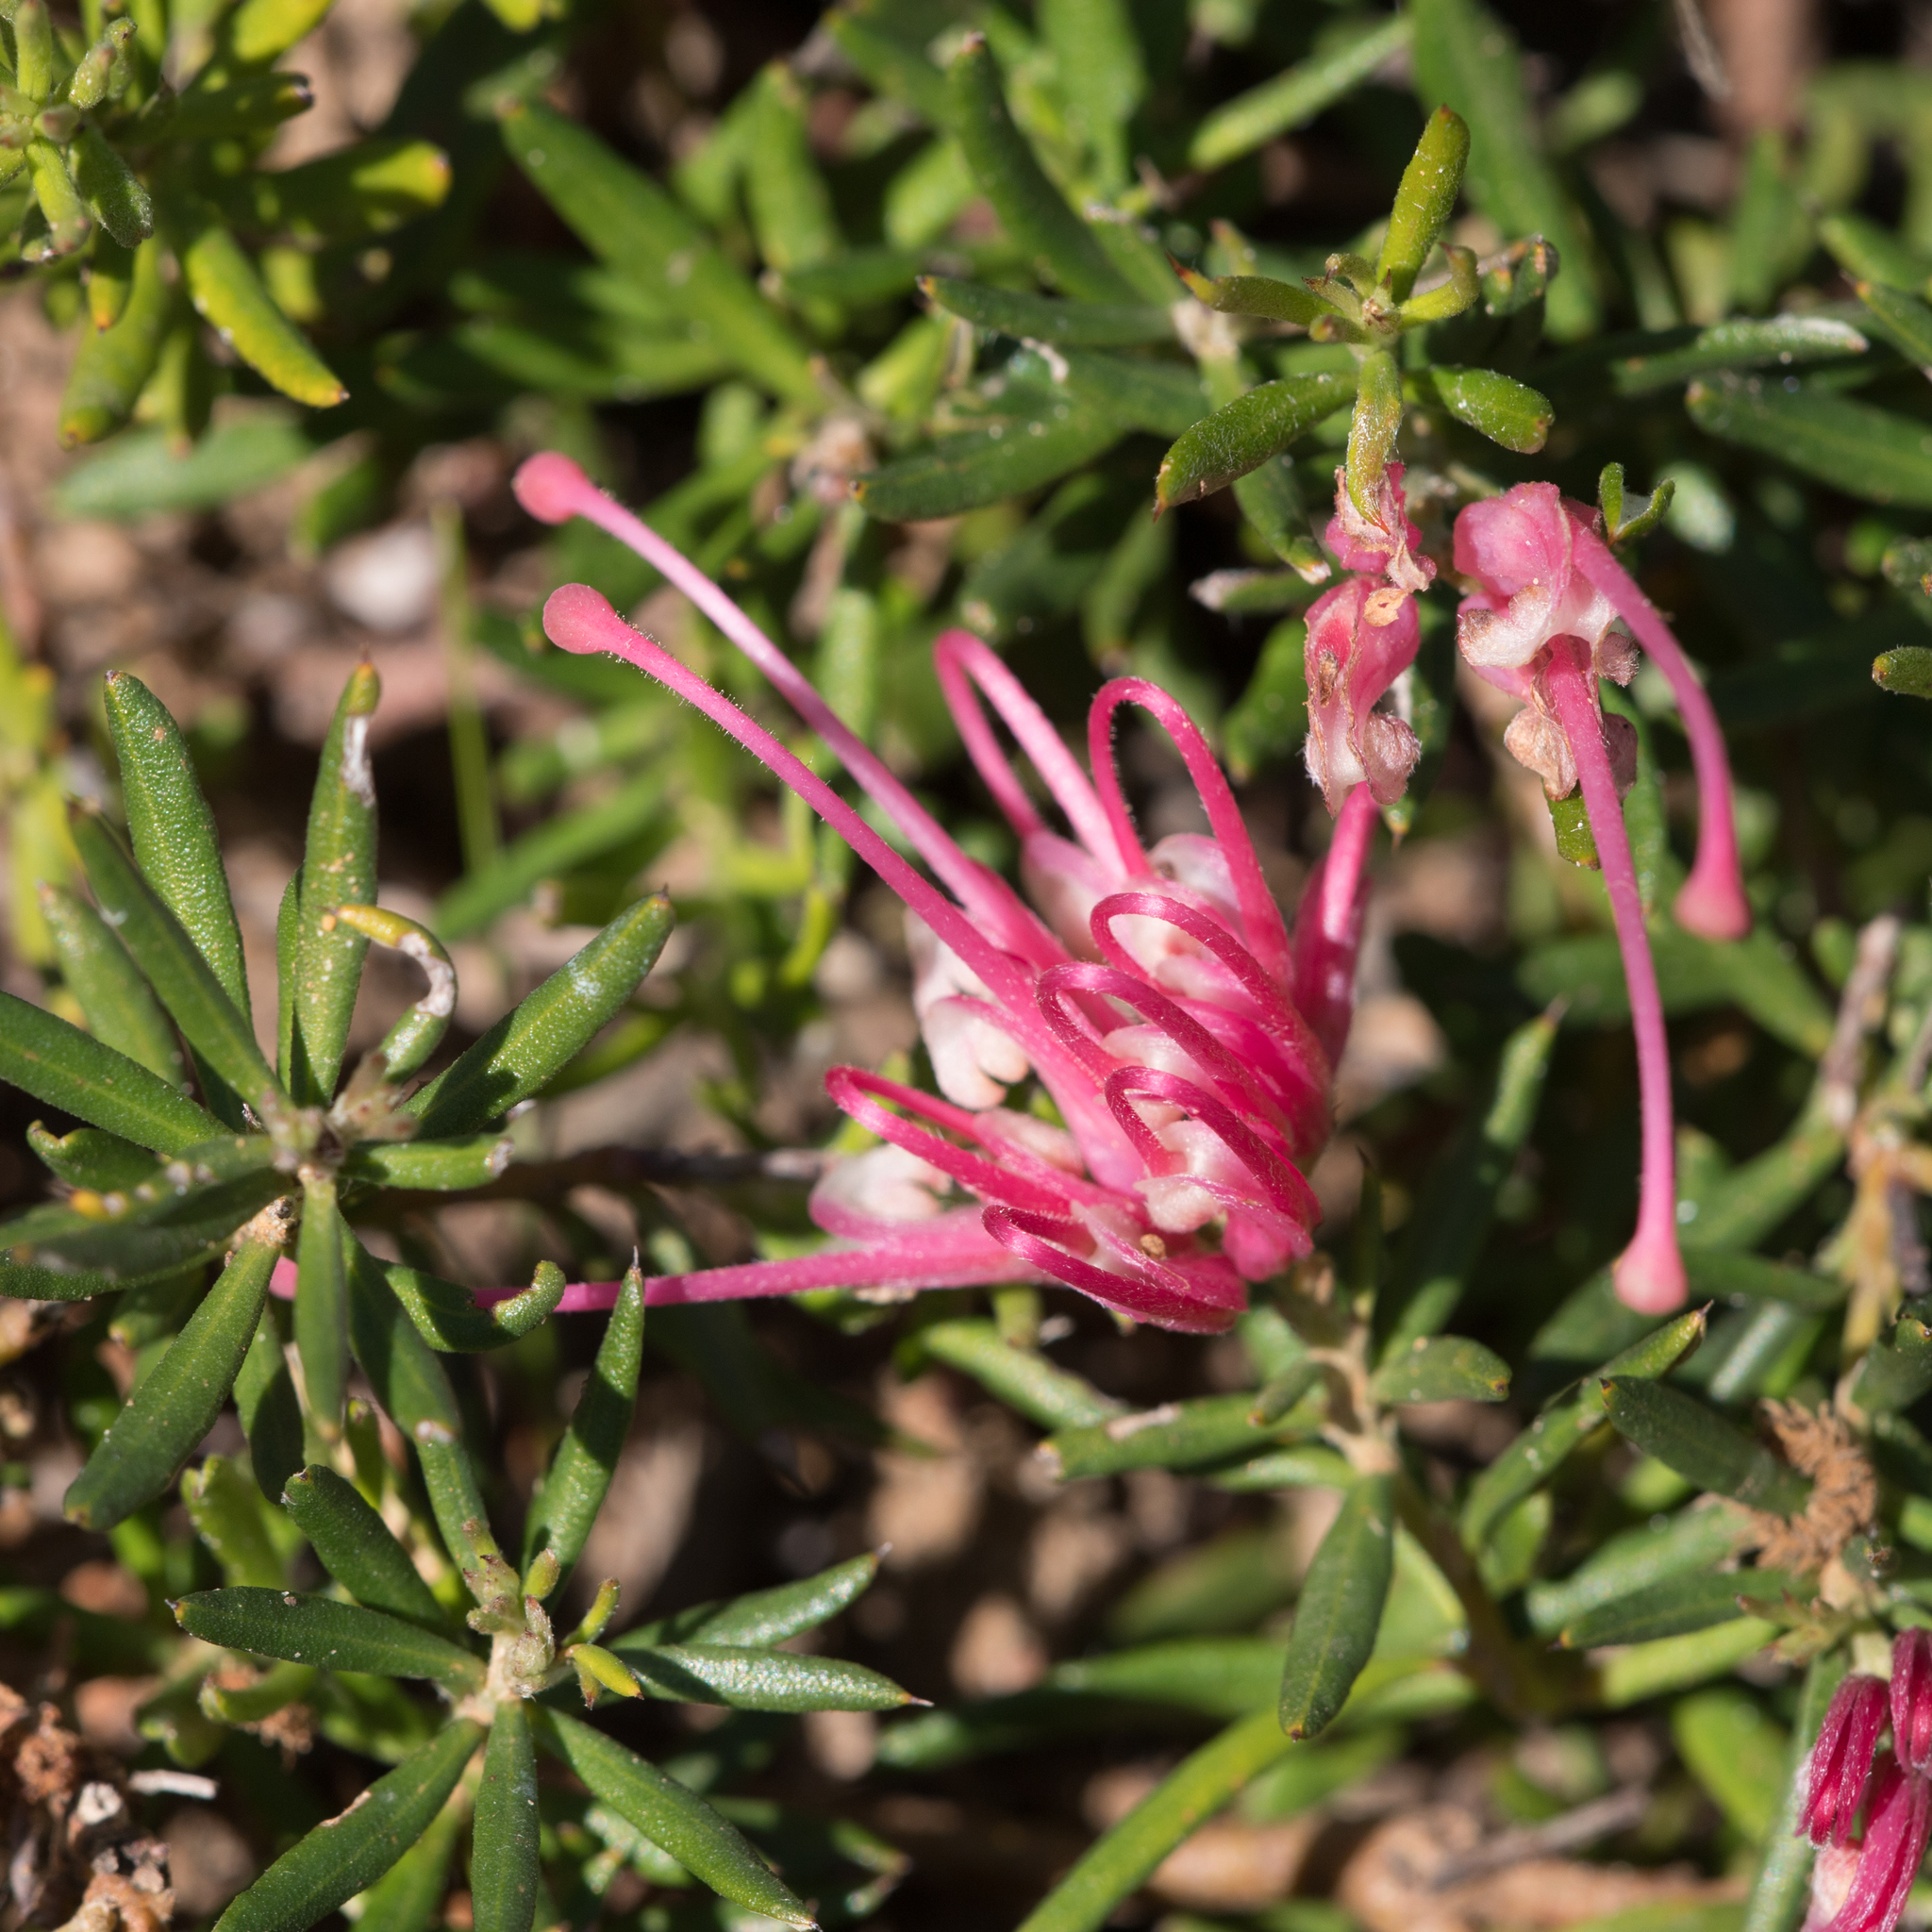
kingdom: Plantae
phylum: Tracheophyta
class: Magnoliopsida
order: Proteales
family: Proteaceae
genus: Grevillea
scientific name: Grevillea lavandulacea
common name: Lavender grevillea
